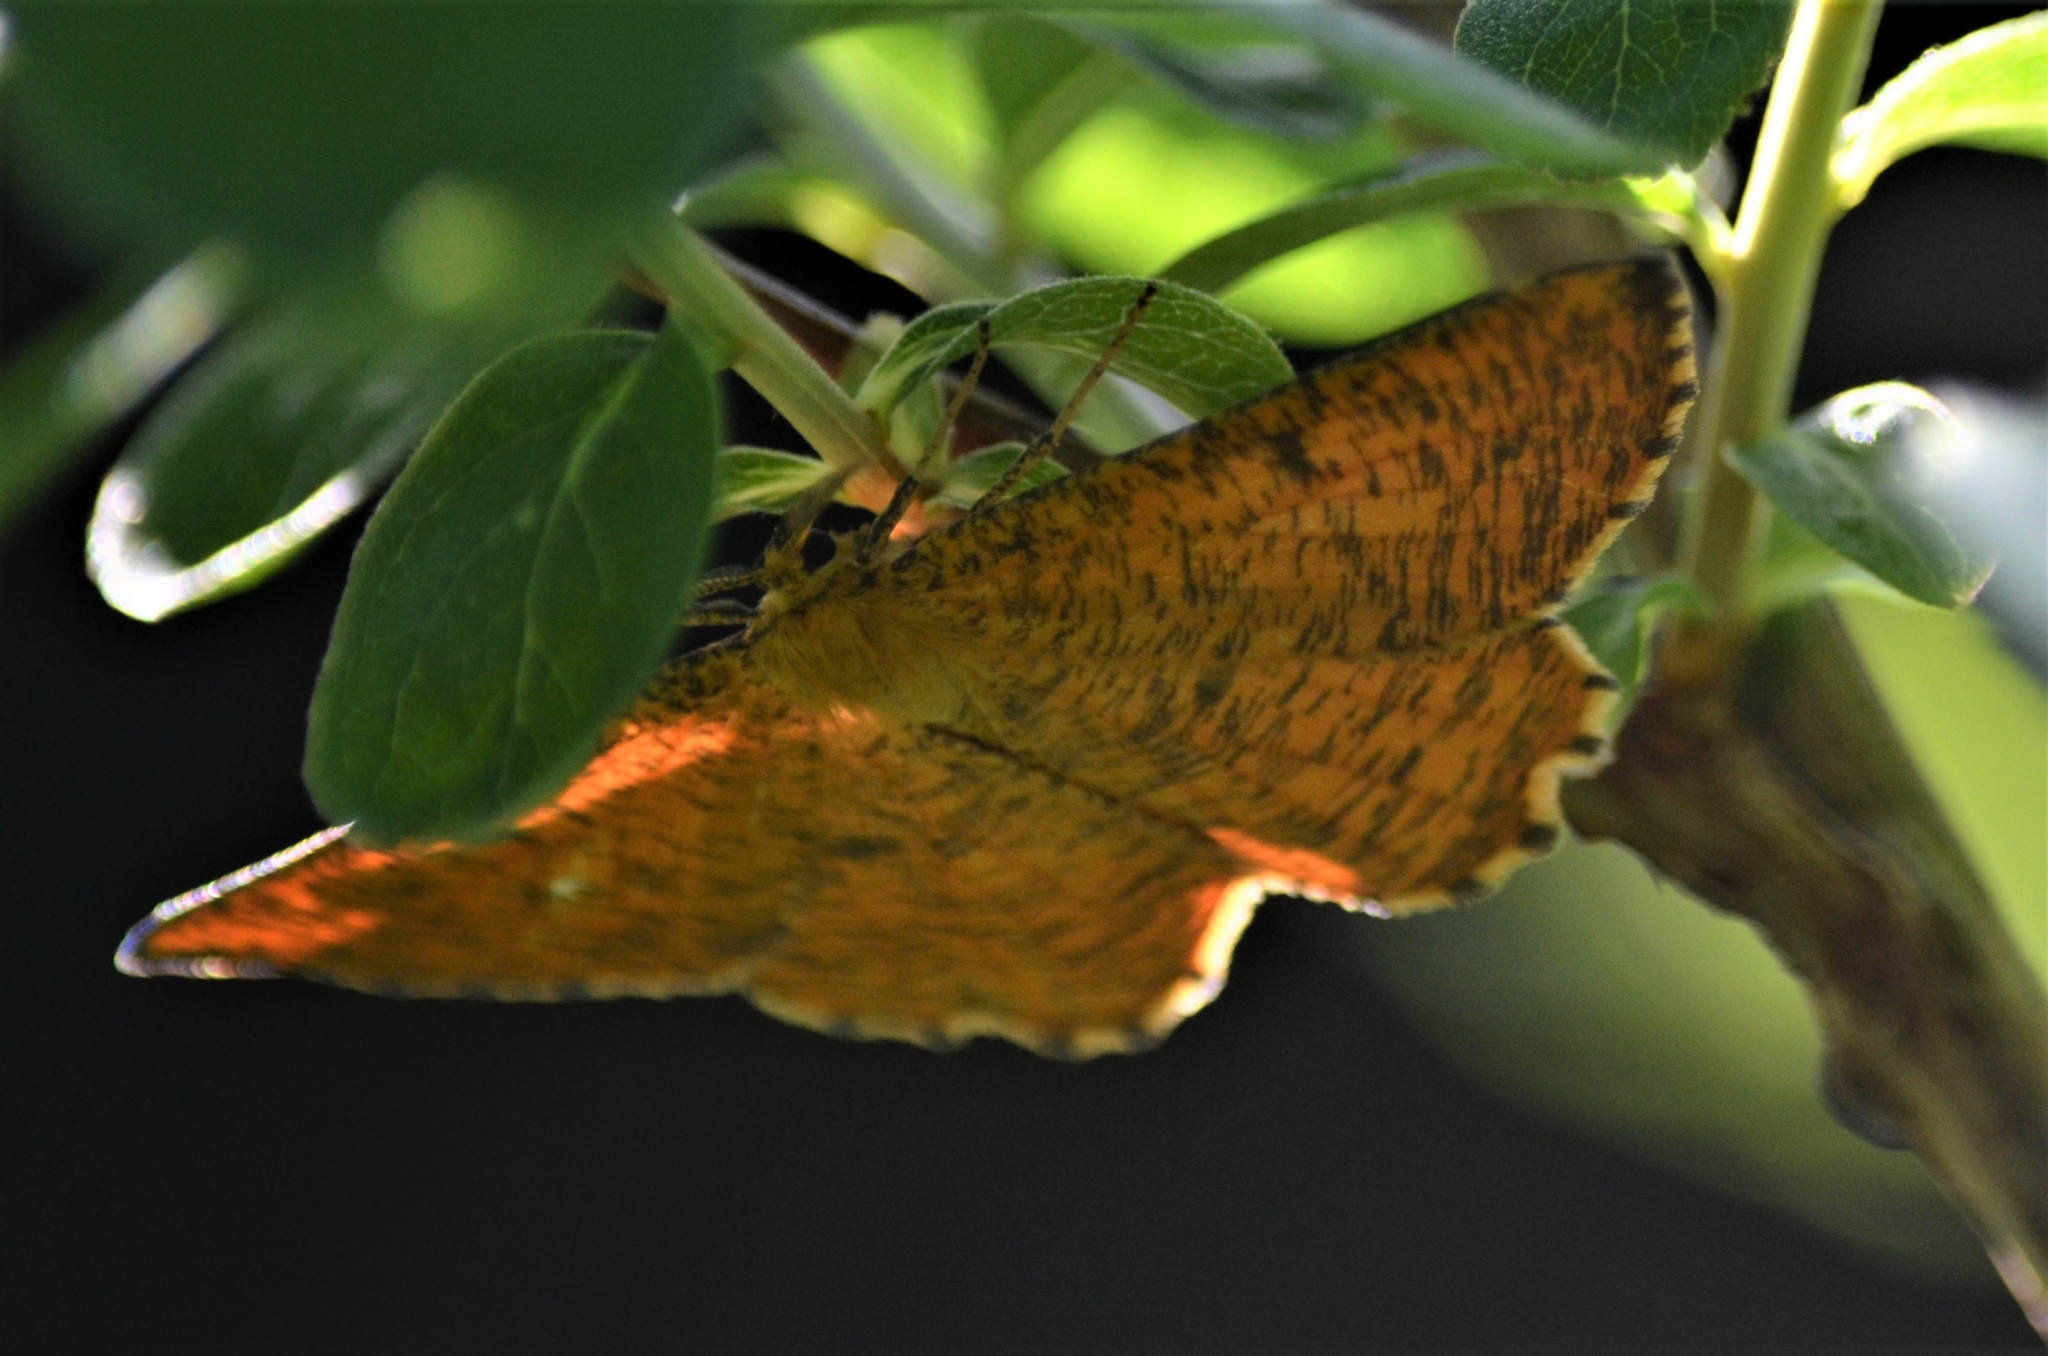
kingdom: Animalia
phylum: Arthropoda
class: Insecta
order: Lepidoptera
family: Geometridae
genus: Angerona
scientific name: Angerona prunaria
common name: Orange moth
